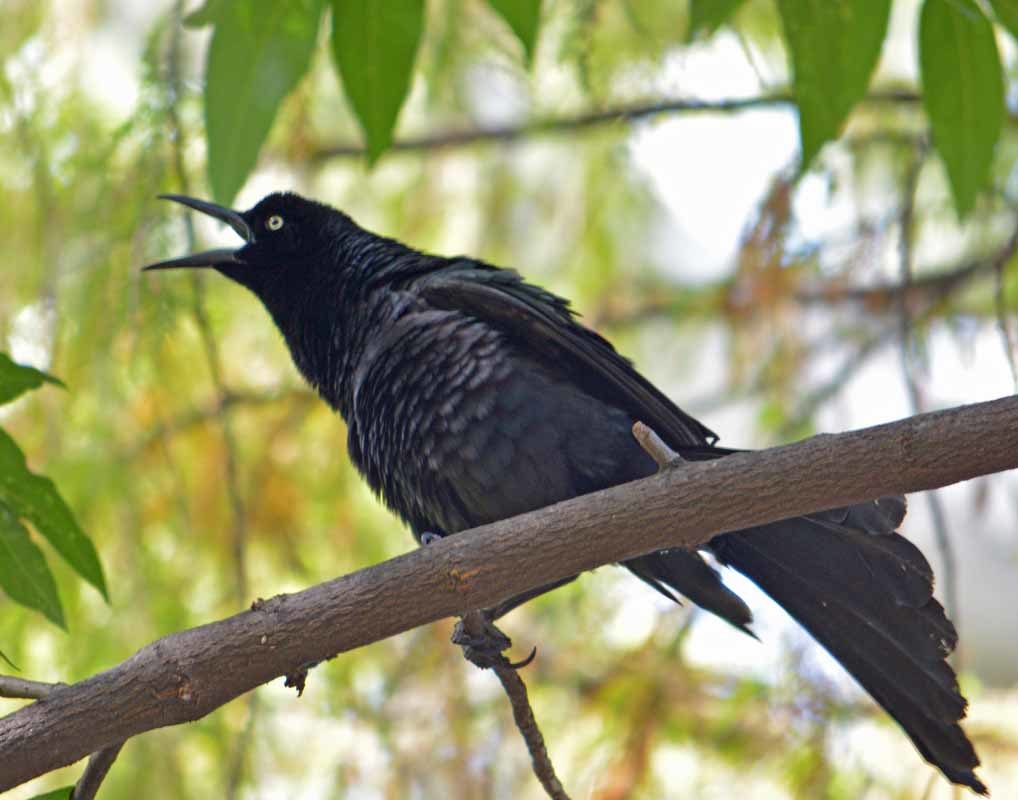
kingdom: Animalia
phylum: Chordata
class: Aves
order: Passeriformes
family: Icteridae
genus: Quiscalus
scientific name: Quiscalus mexicanus
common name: Great-tailed grackle
